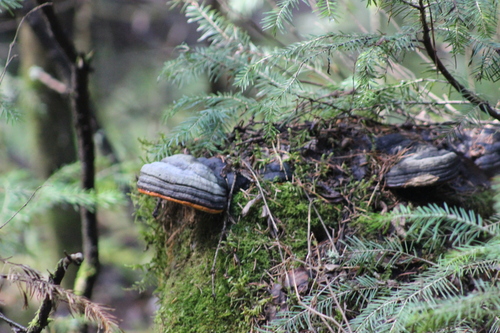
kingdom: Fungi
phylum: Basidiomycota
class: Agaricomycetes
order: Polyporales
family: Fomitopsidaceae
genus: Fomitopsis
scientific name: Fomitopsis pinicola
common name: Red-belted bracket
